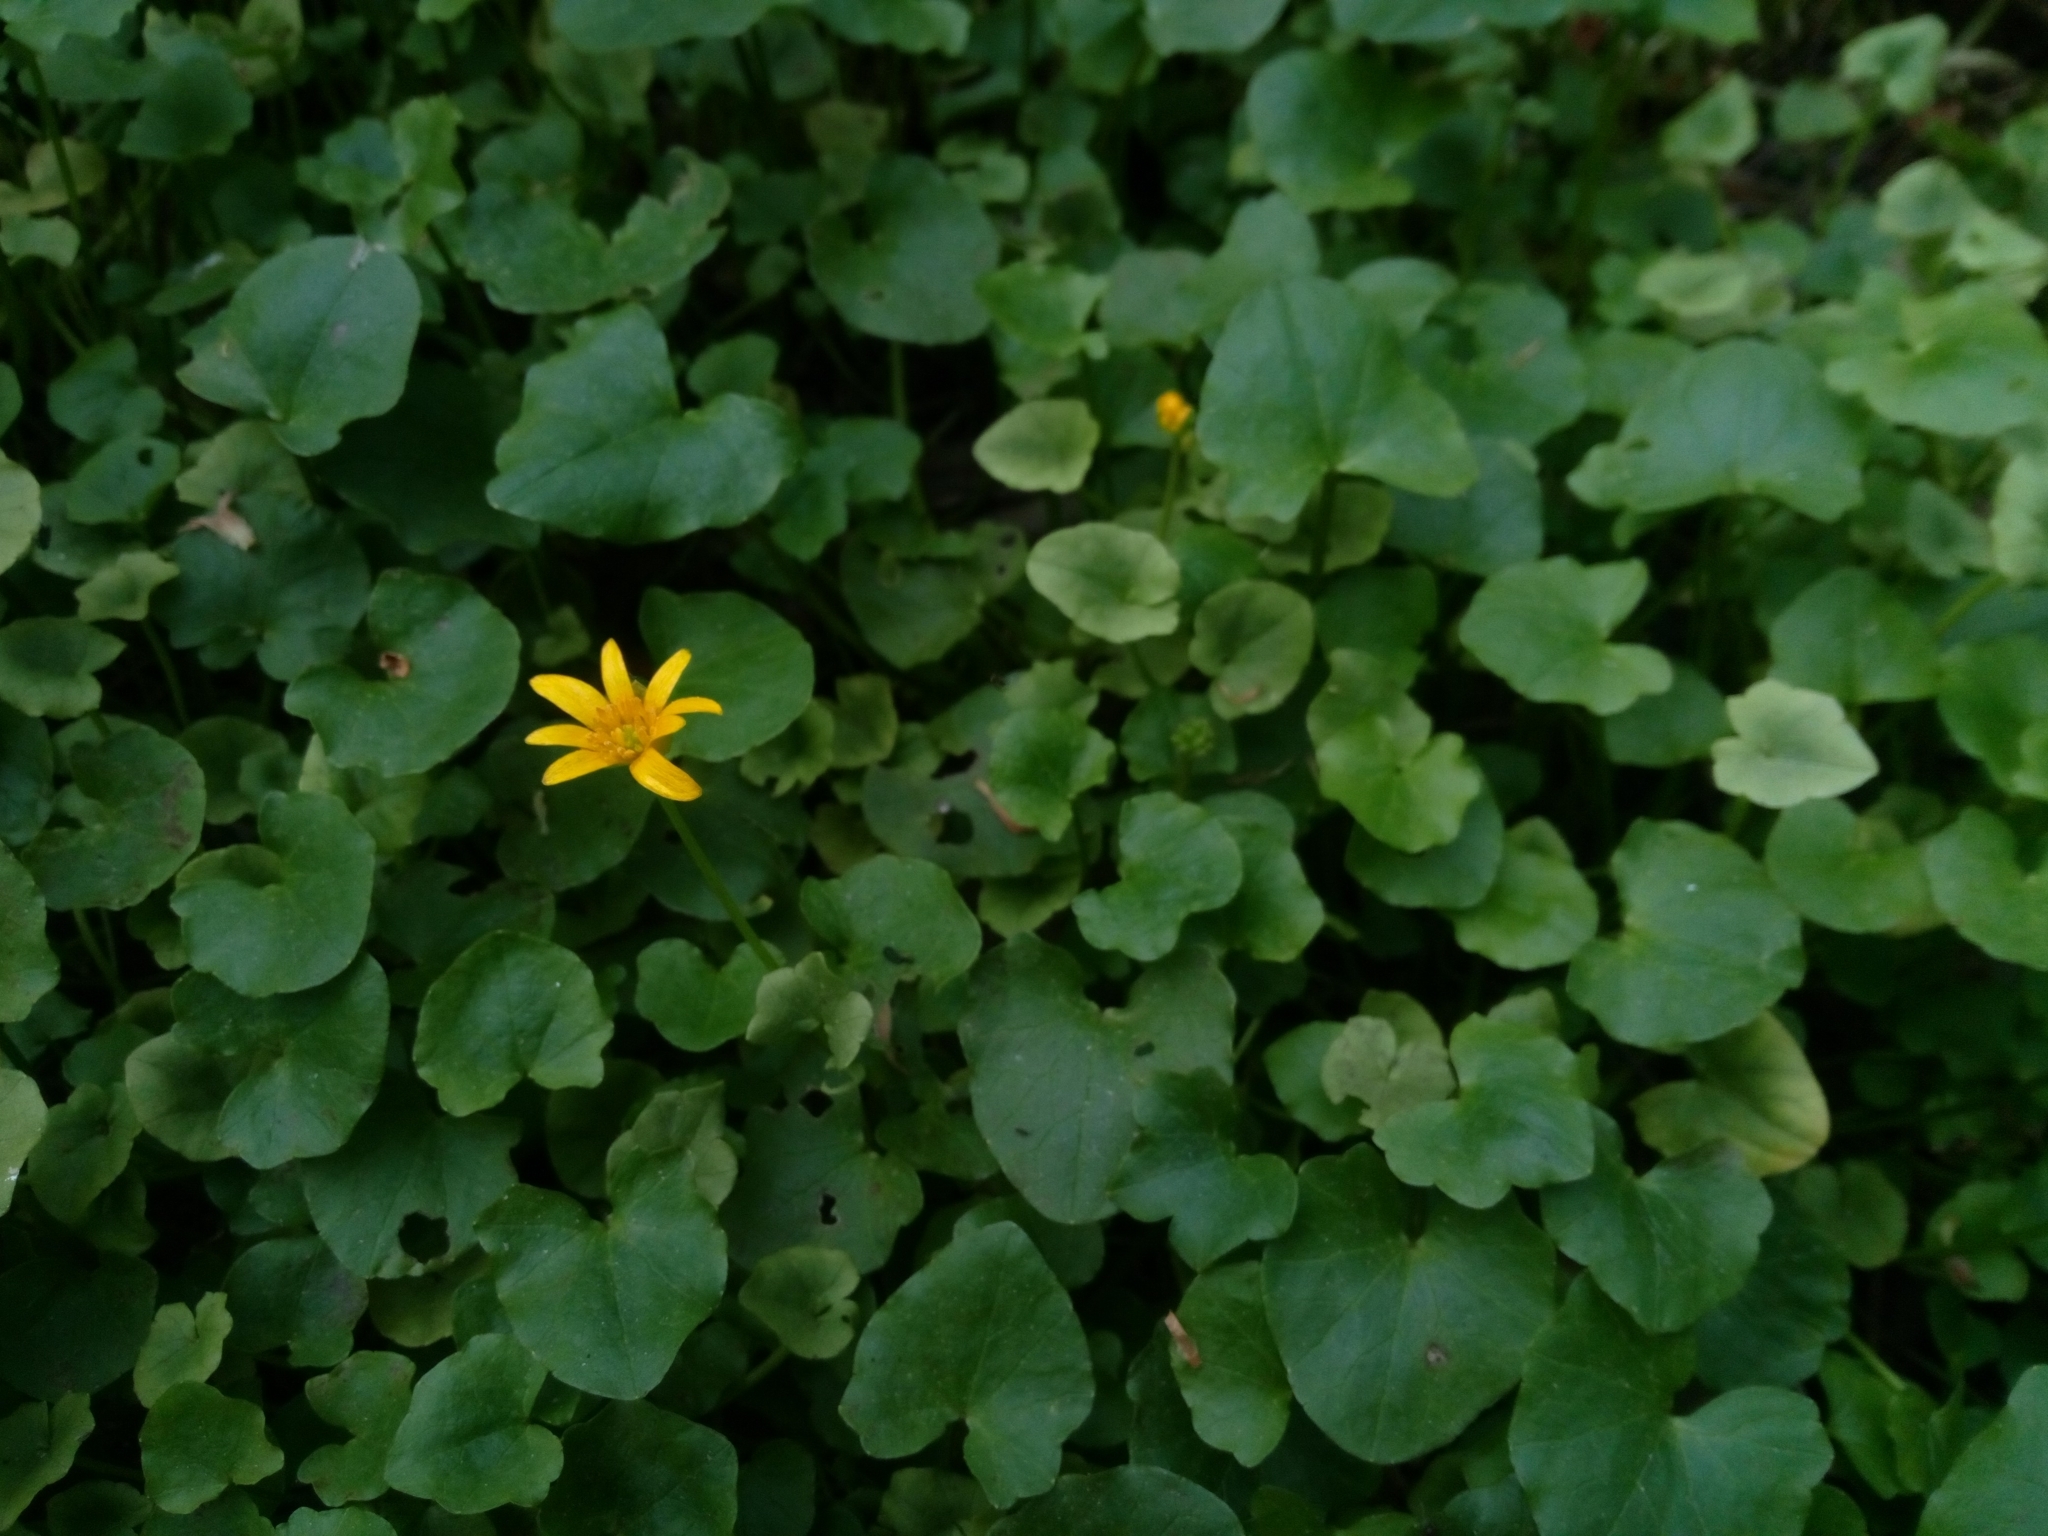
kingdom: Plantae
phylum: Tracheophyta
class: Magnoliopsida
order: Ranunculales
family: Ranunculaceae
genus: Ficaria
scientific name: Ficaria verna
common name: Lesser celandine
